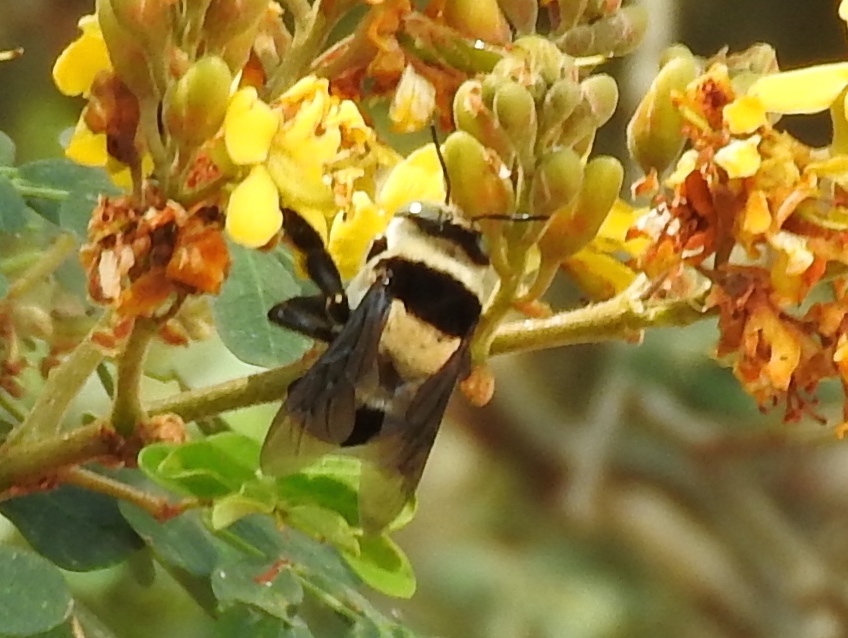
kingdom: Animalia
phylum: Arthropoda
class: Insecta
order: Hymenoptera
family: Apidae
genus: Centris
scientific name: Centris flavofasciata
